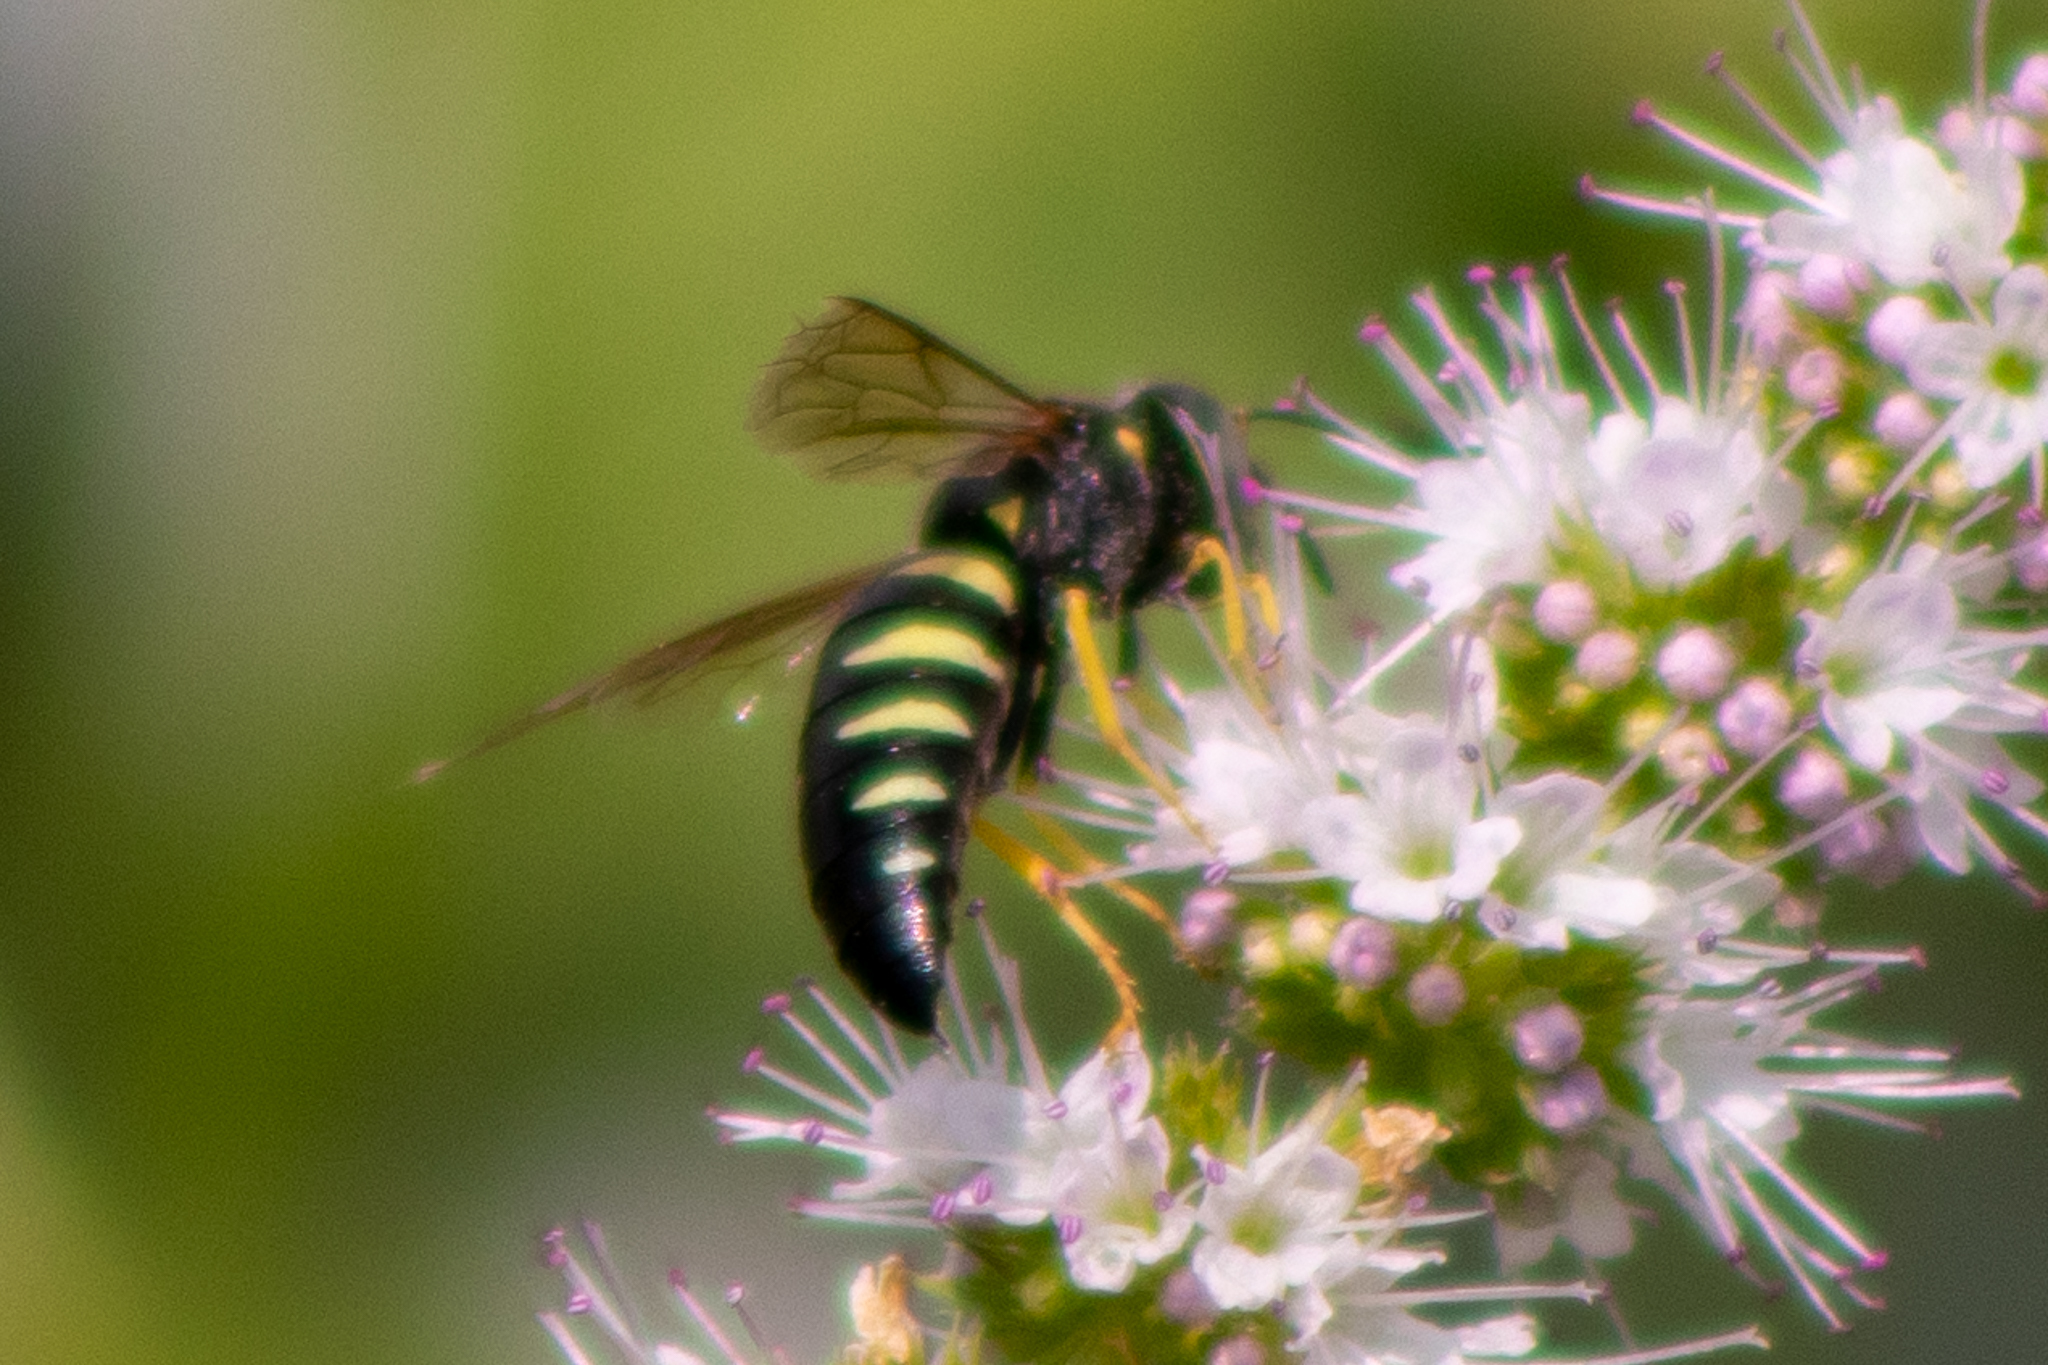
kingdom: Animalia
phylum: Arthropoda
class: Insecta
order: Hymenoptera
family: Crabronidae
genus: Bicyrtes
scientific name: Bicyrtes quadrifasciatus
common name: Four-banded stink bug hunter wasp
